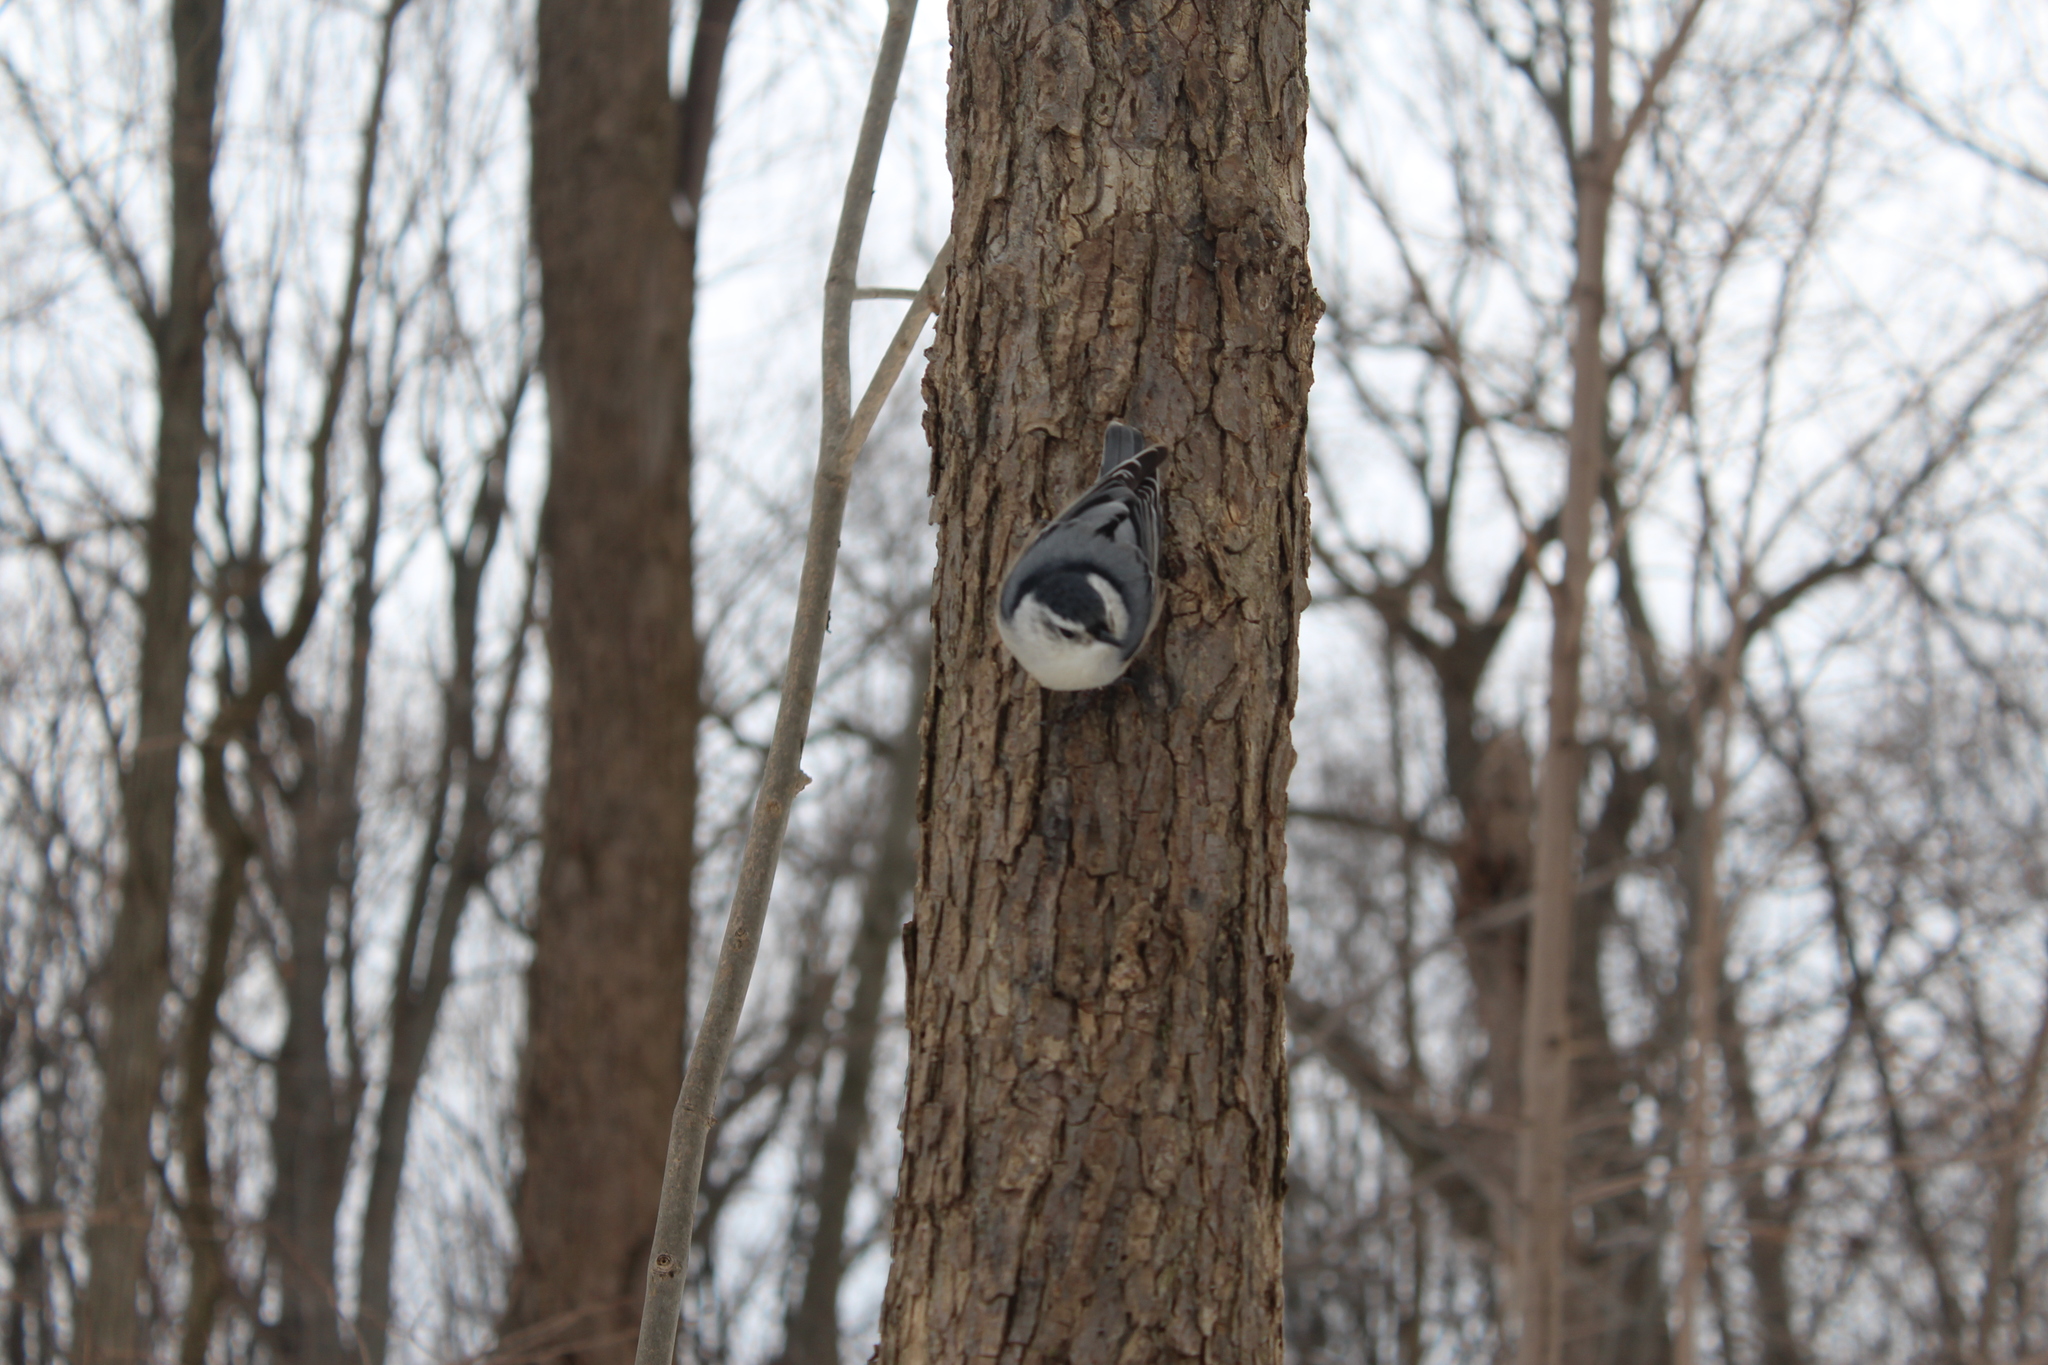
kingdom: Animalia
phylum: Chordata
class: Aves
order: Passeriformes
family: Sittidae
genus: Sitta
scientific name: Sitta carolinensis
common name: White-breasted nuthatch
